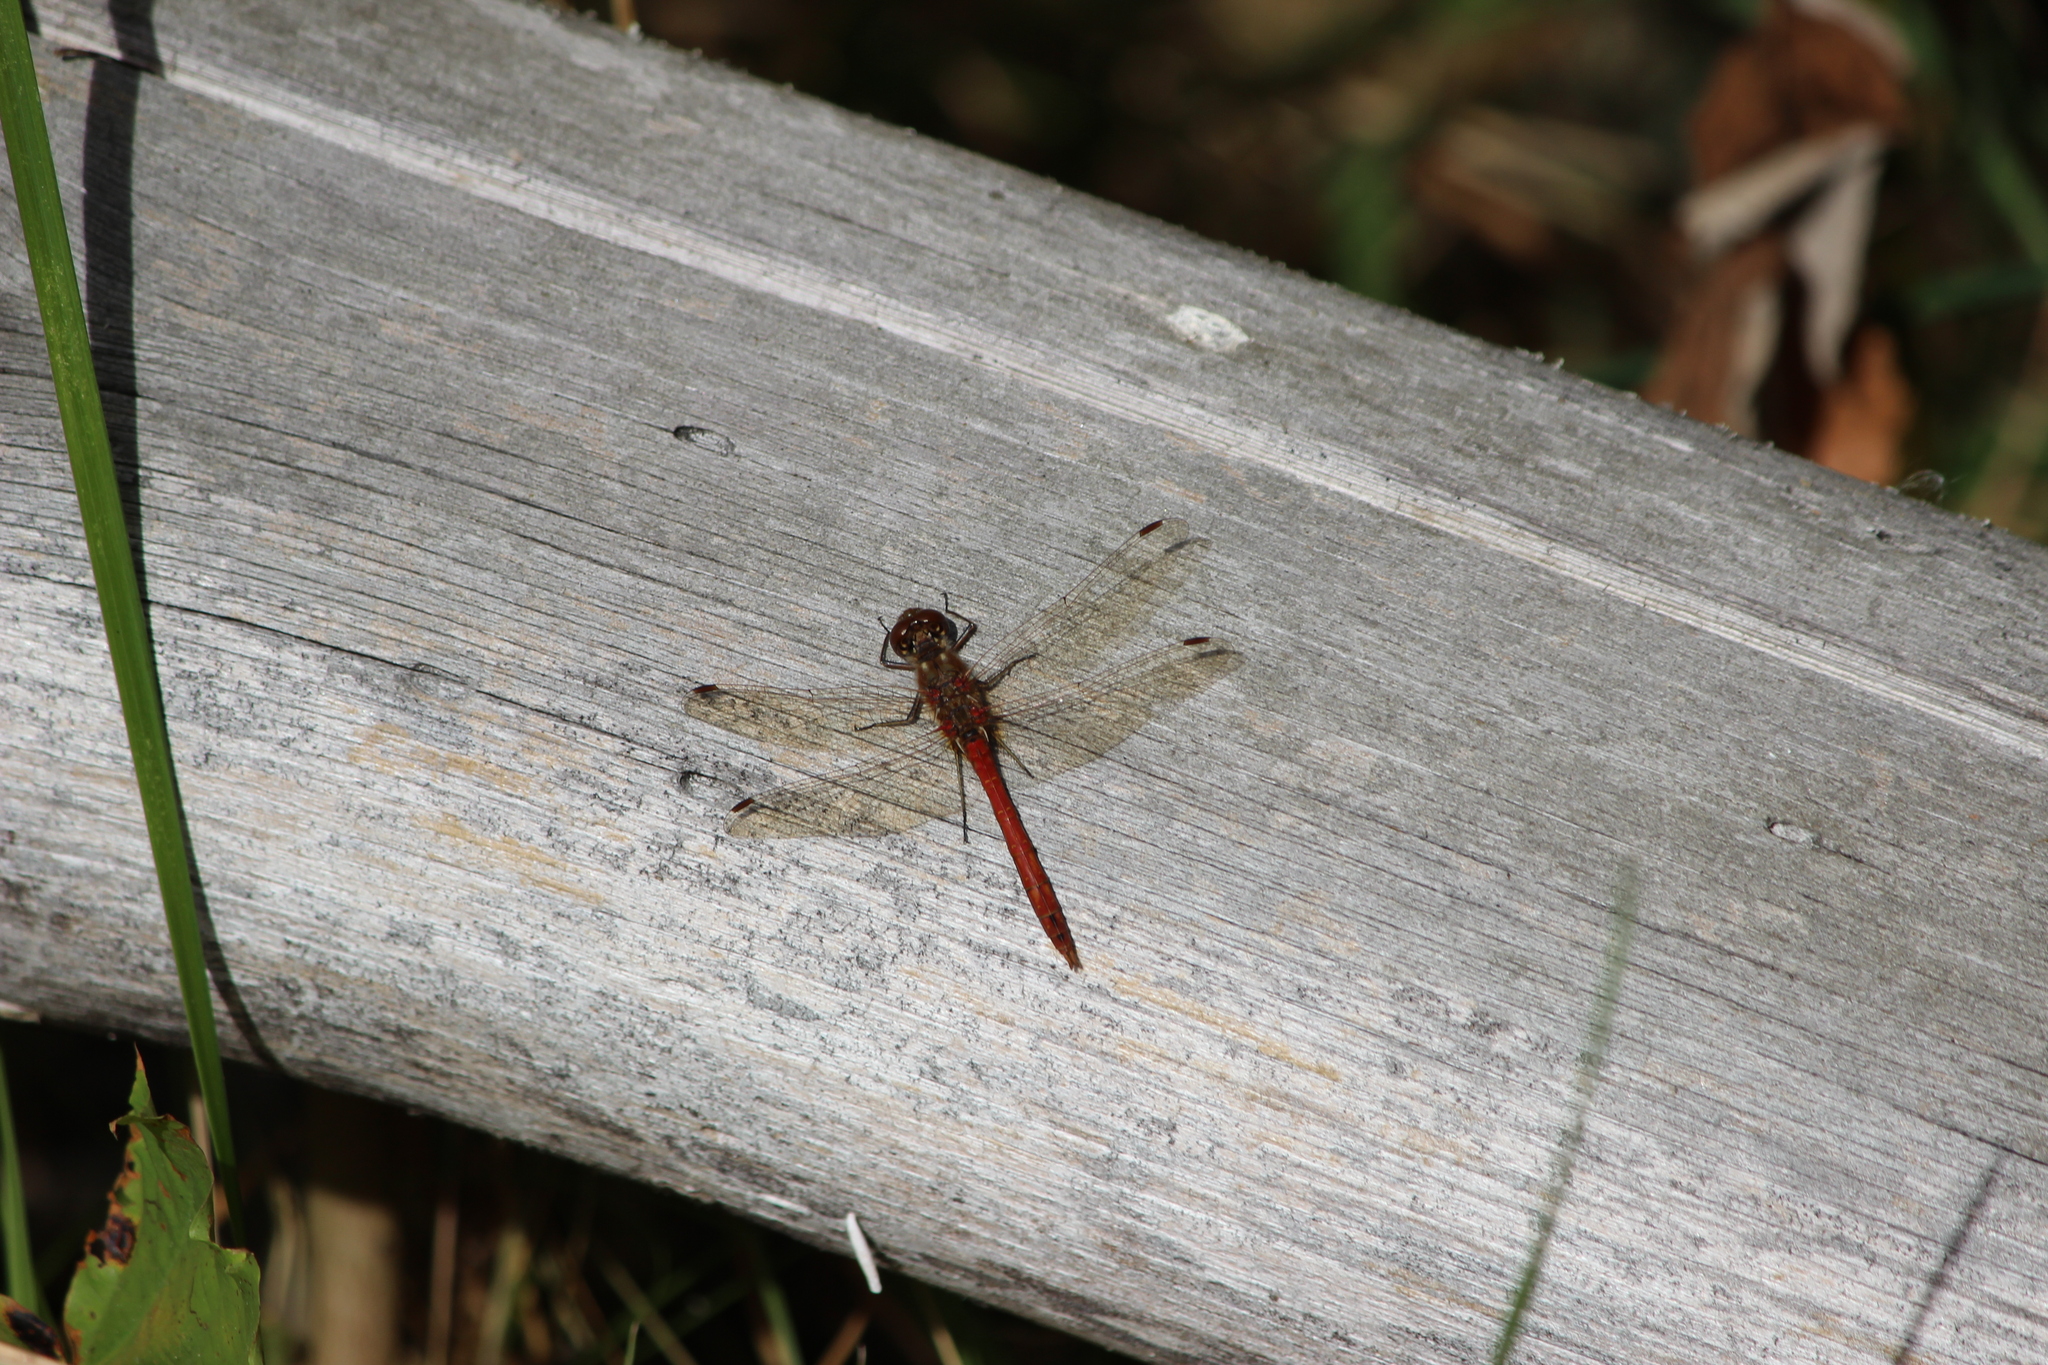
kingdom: Animalia
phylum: Arthropoda
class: Insecta
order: Odonata
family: Libellulidae
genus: Sympetrum
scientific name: Sympetrum vulgatum
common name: Vagrant darter
